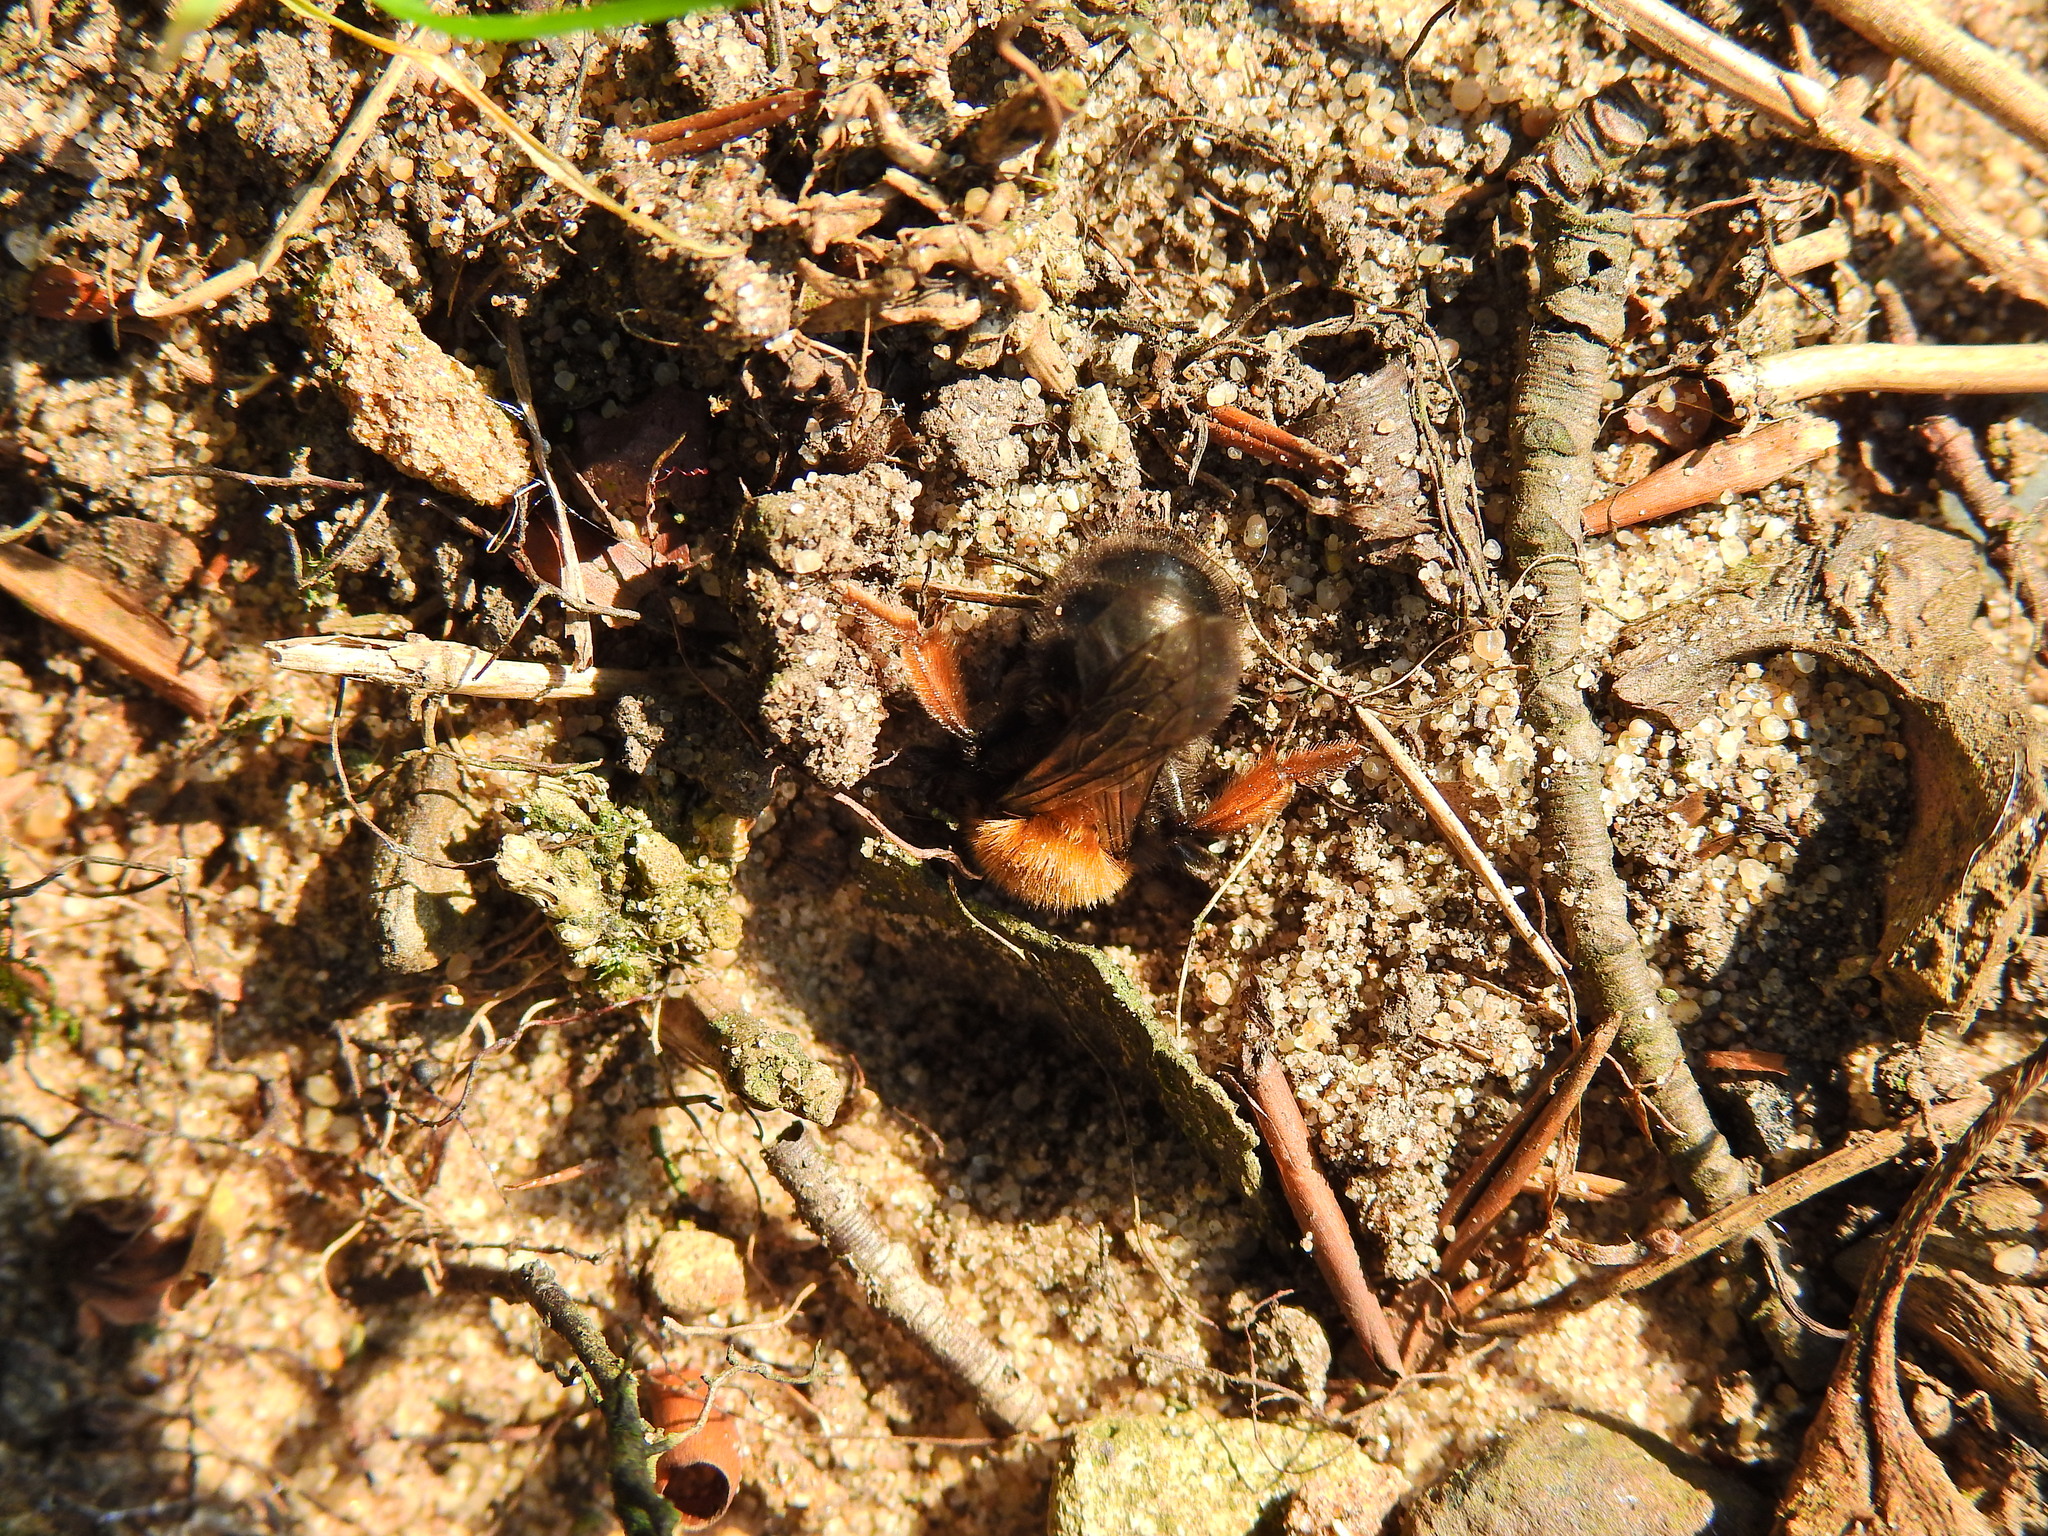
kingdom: Animalia
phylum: Arthropoda
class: Insecta
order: Hymenoptera
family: Andrenidae
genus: Andrena
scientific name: Andrena clarkella
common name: Clarke's mining bee
